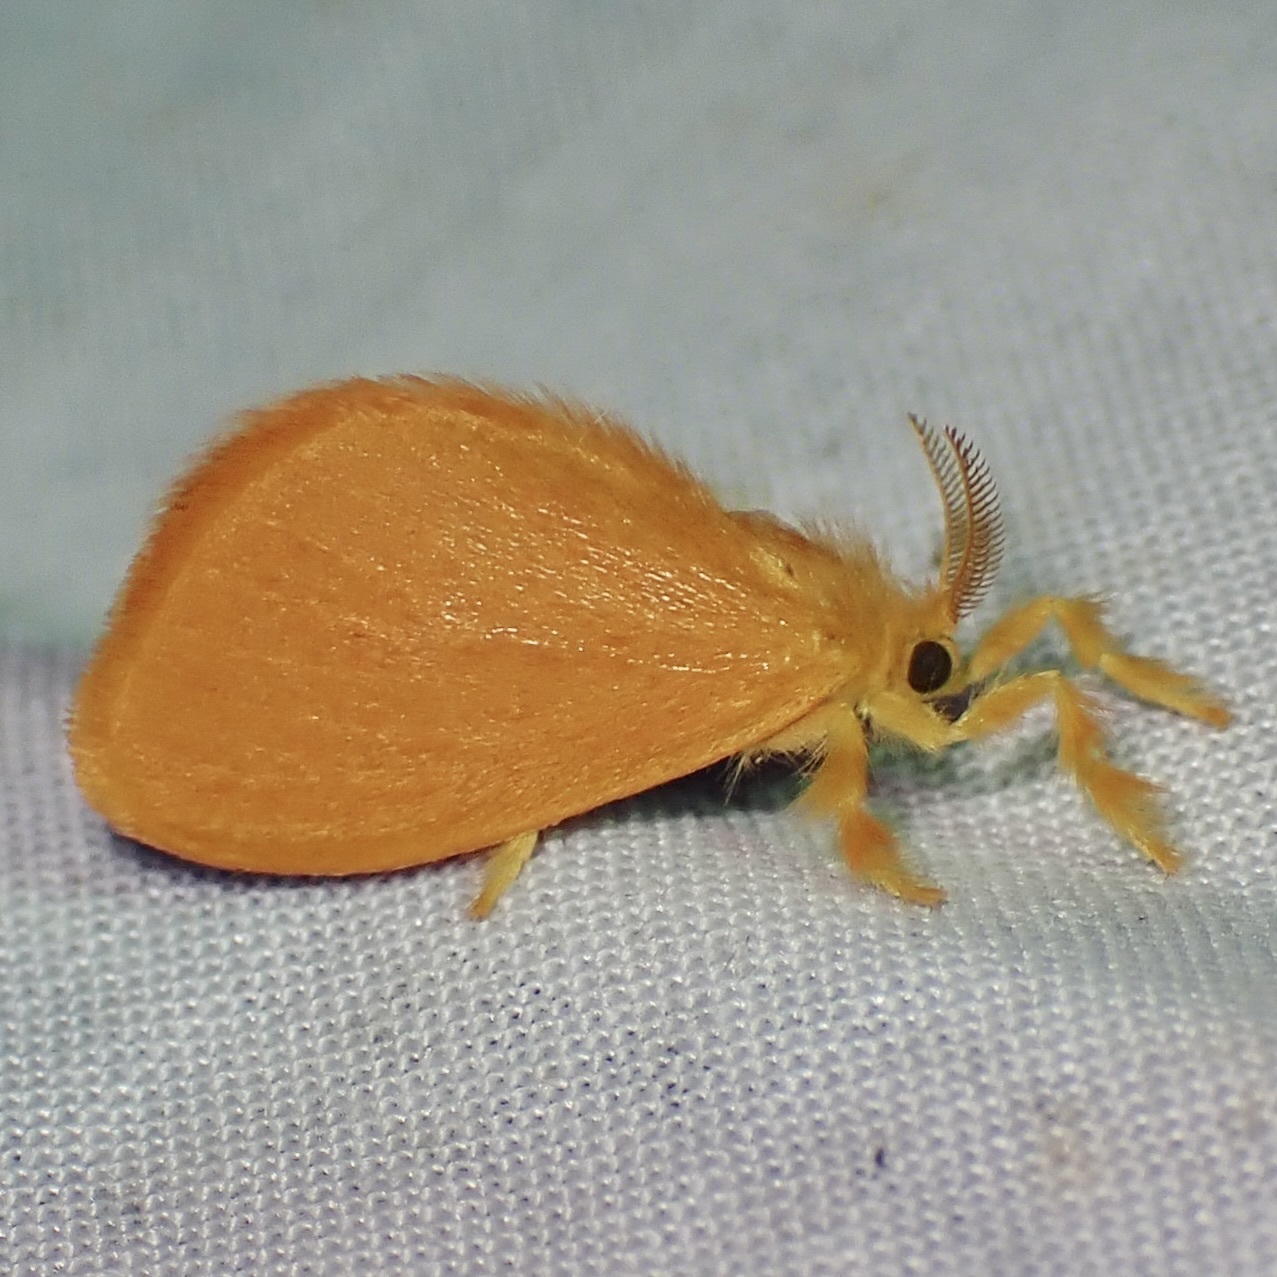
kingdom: Animalia
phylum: Arthropoda
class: Insecta
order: Lepidoptera
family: Dalceridae
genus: Dalcerides
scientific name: Dalcerides ingenita
